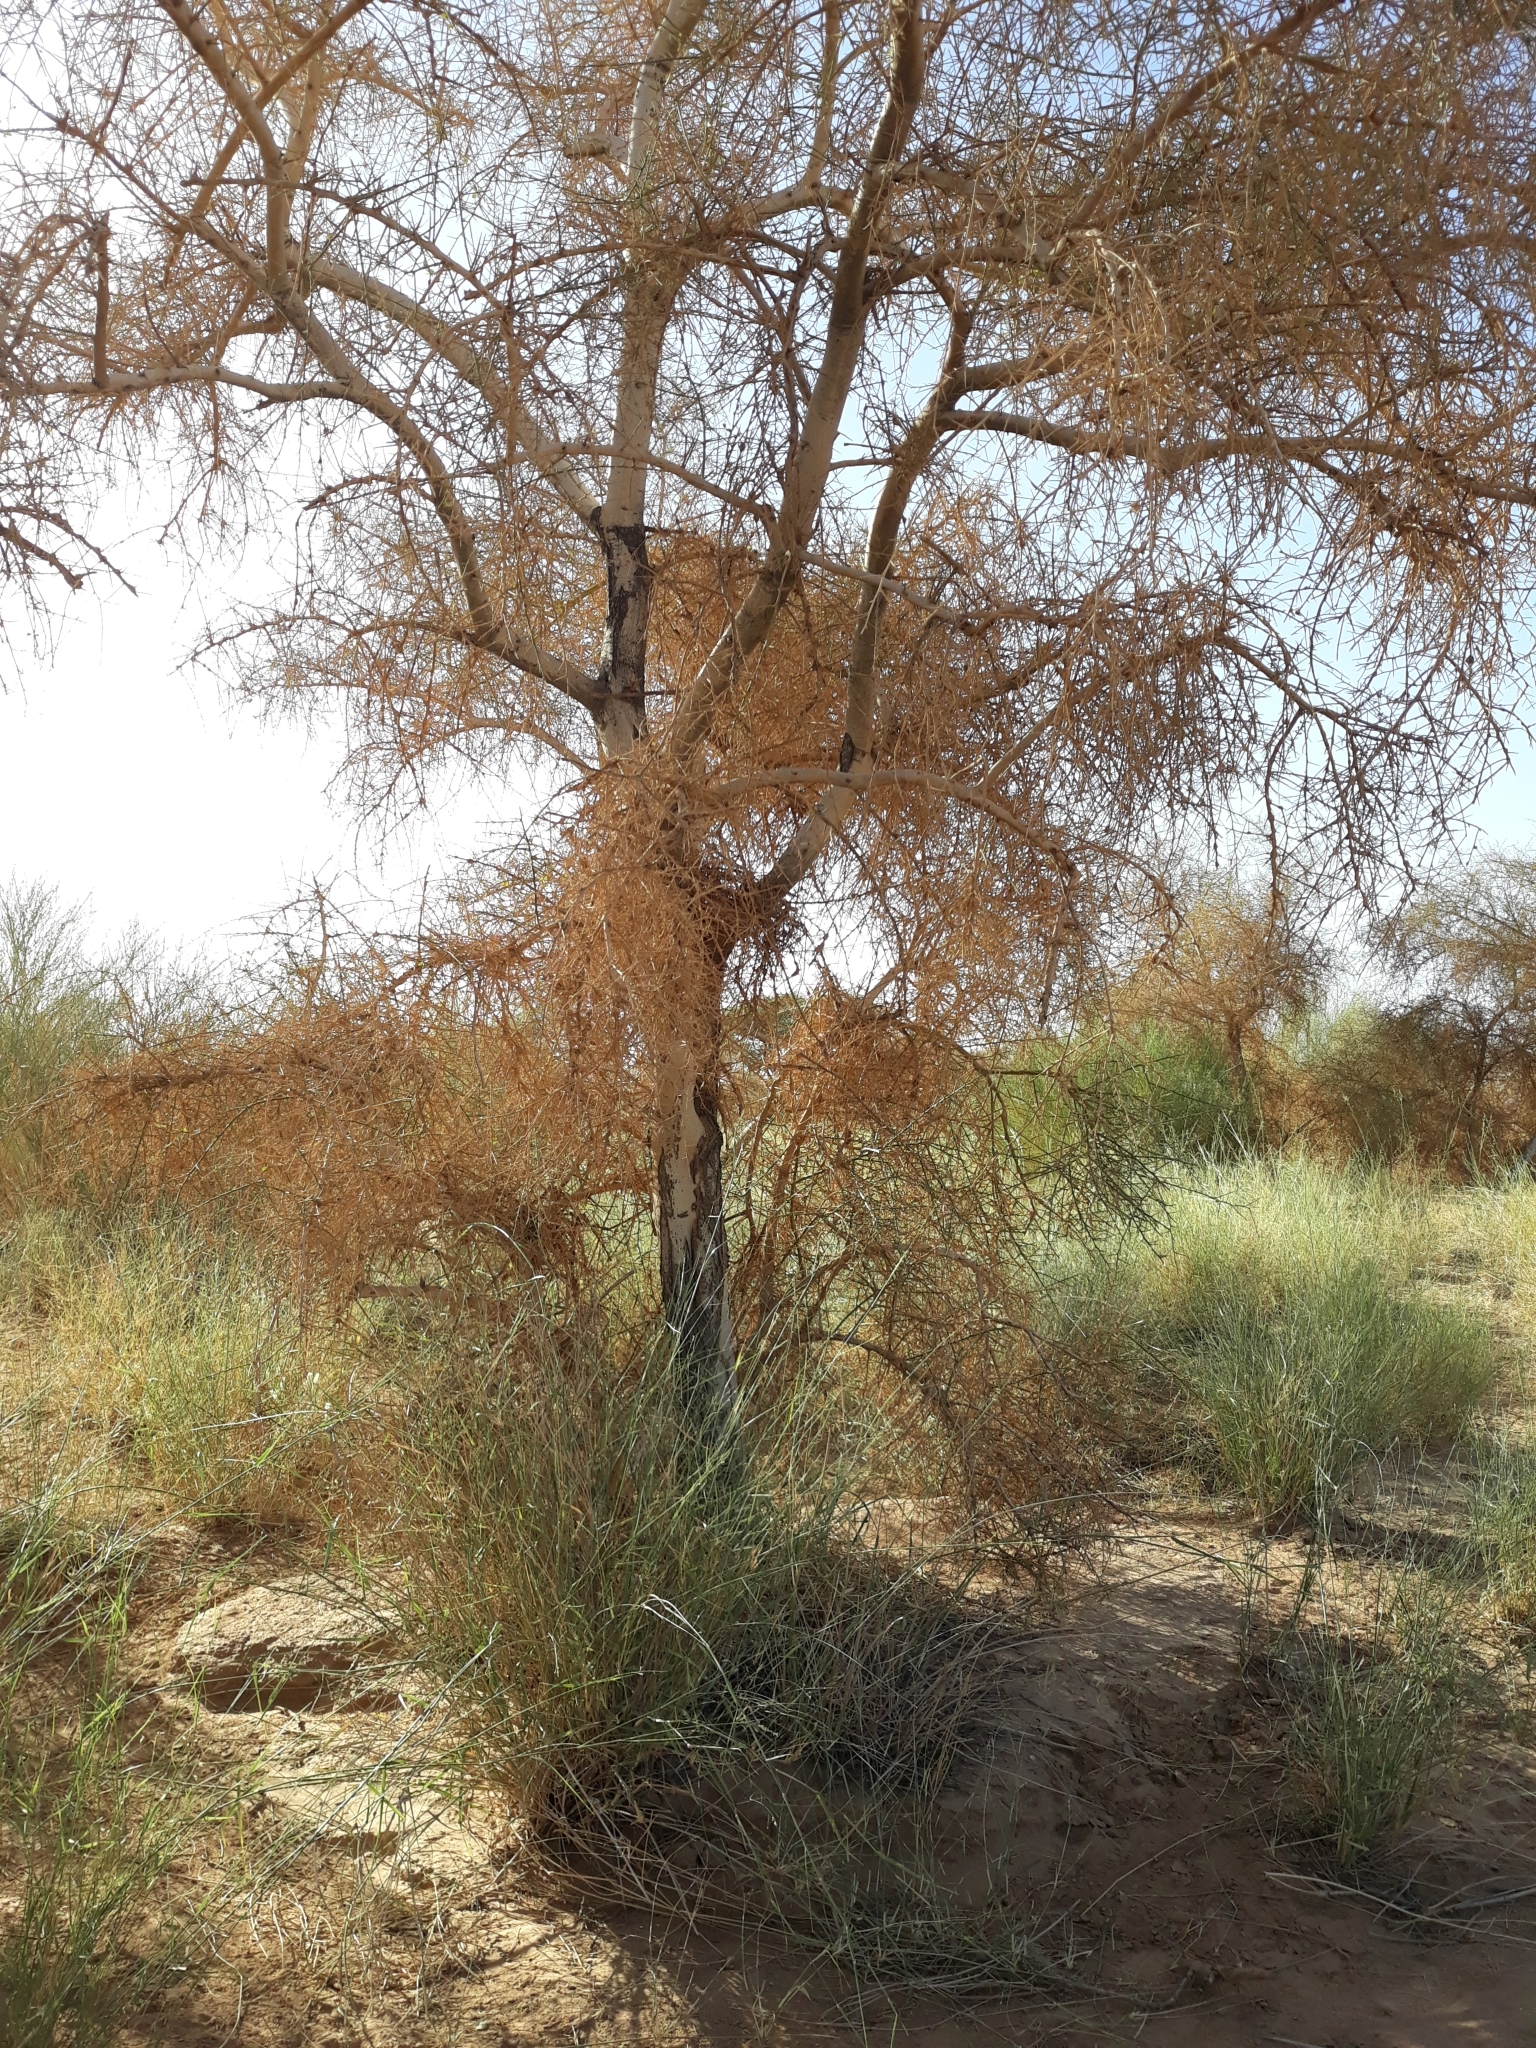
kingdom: Plantae
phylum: Tracheophyta
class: Magnoliopsida
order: Zygophyllales
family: Zygophyllaceae
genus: Balanites
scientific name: Balanites aegyptiaca
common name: Balanites
